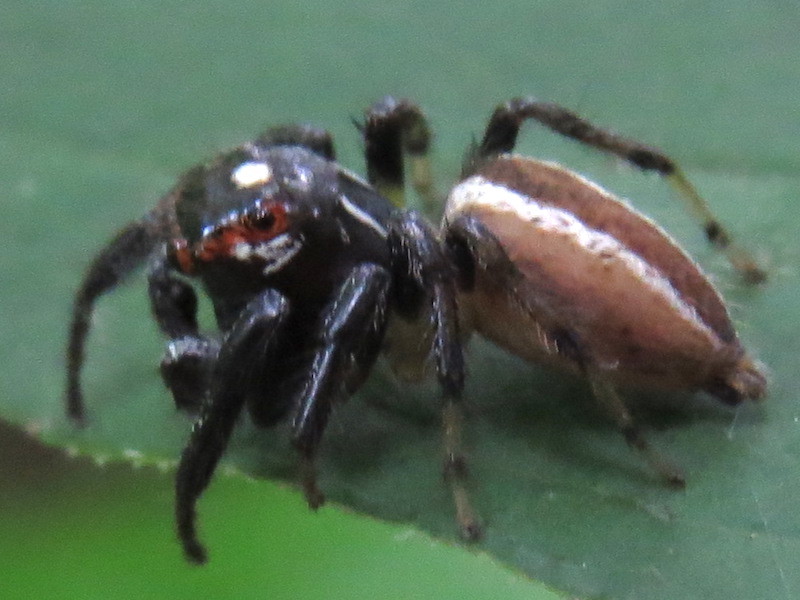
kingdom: Animalia
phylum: Arthropoda
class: Arachnida
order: Araneae
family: Salticidae
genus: Colonus
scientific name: Colonus sylvanus
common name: Jumping spiders
